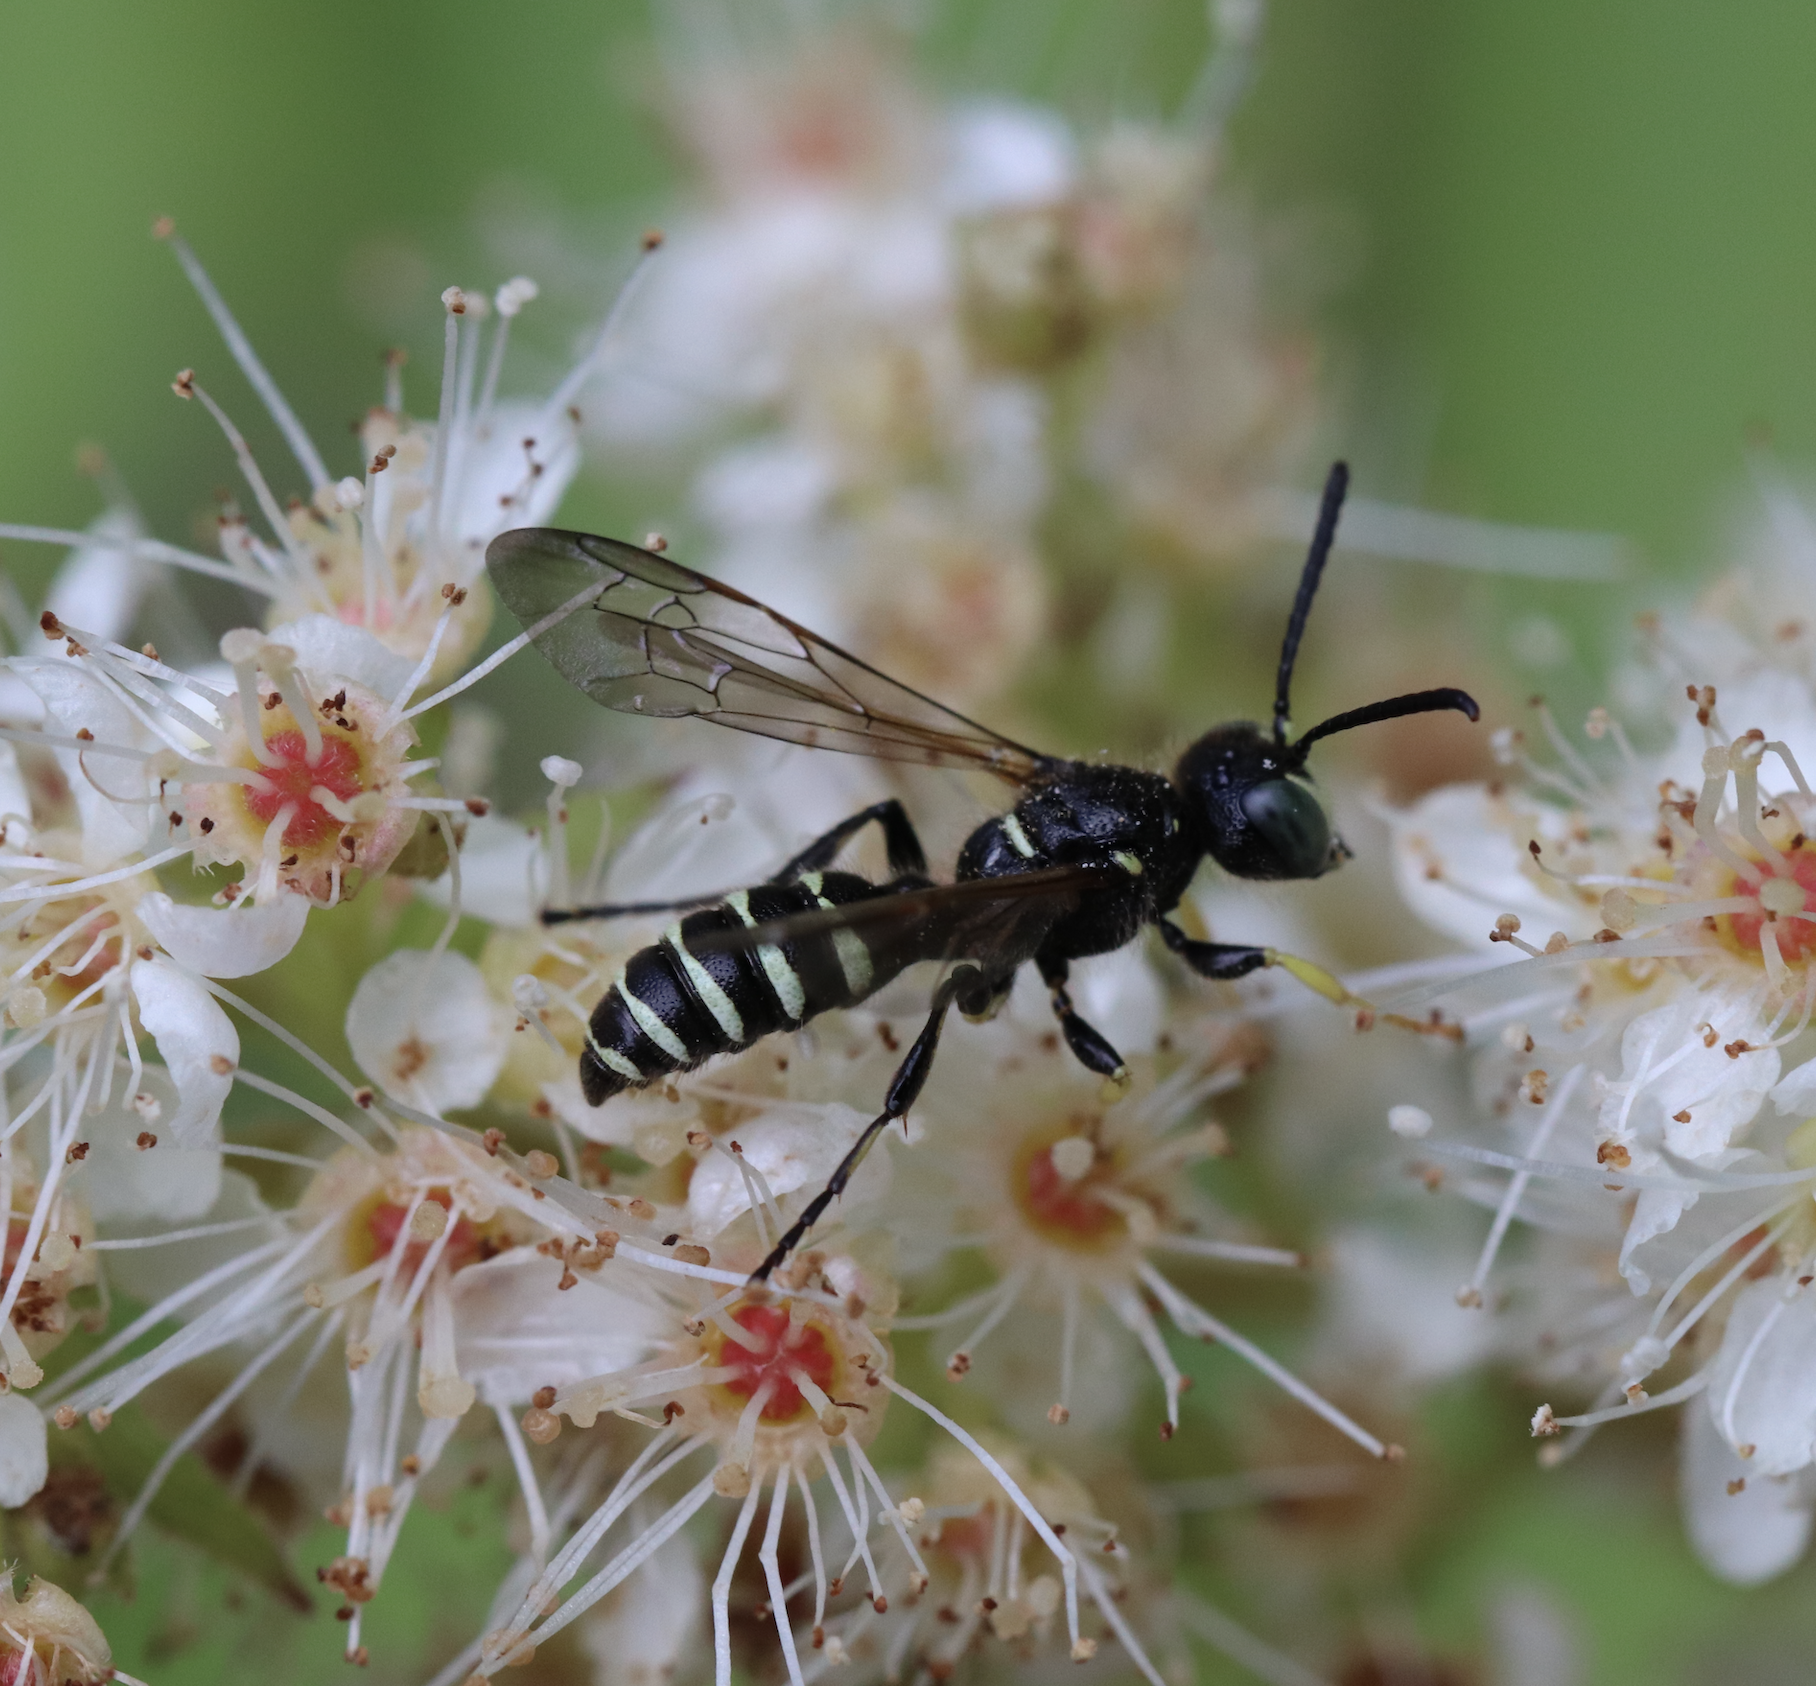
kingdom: Animalia
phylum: Arthropoda
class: Insecta
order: Hymenoptera
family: Crabronidae
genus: Cerceris
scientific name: Cerceris nigrescens
